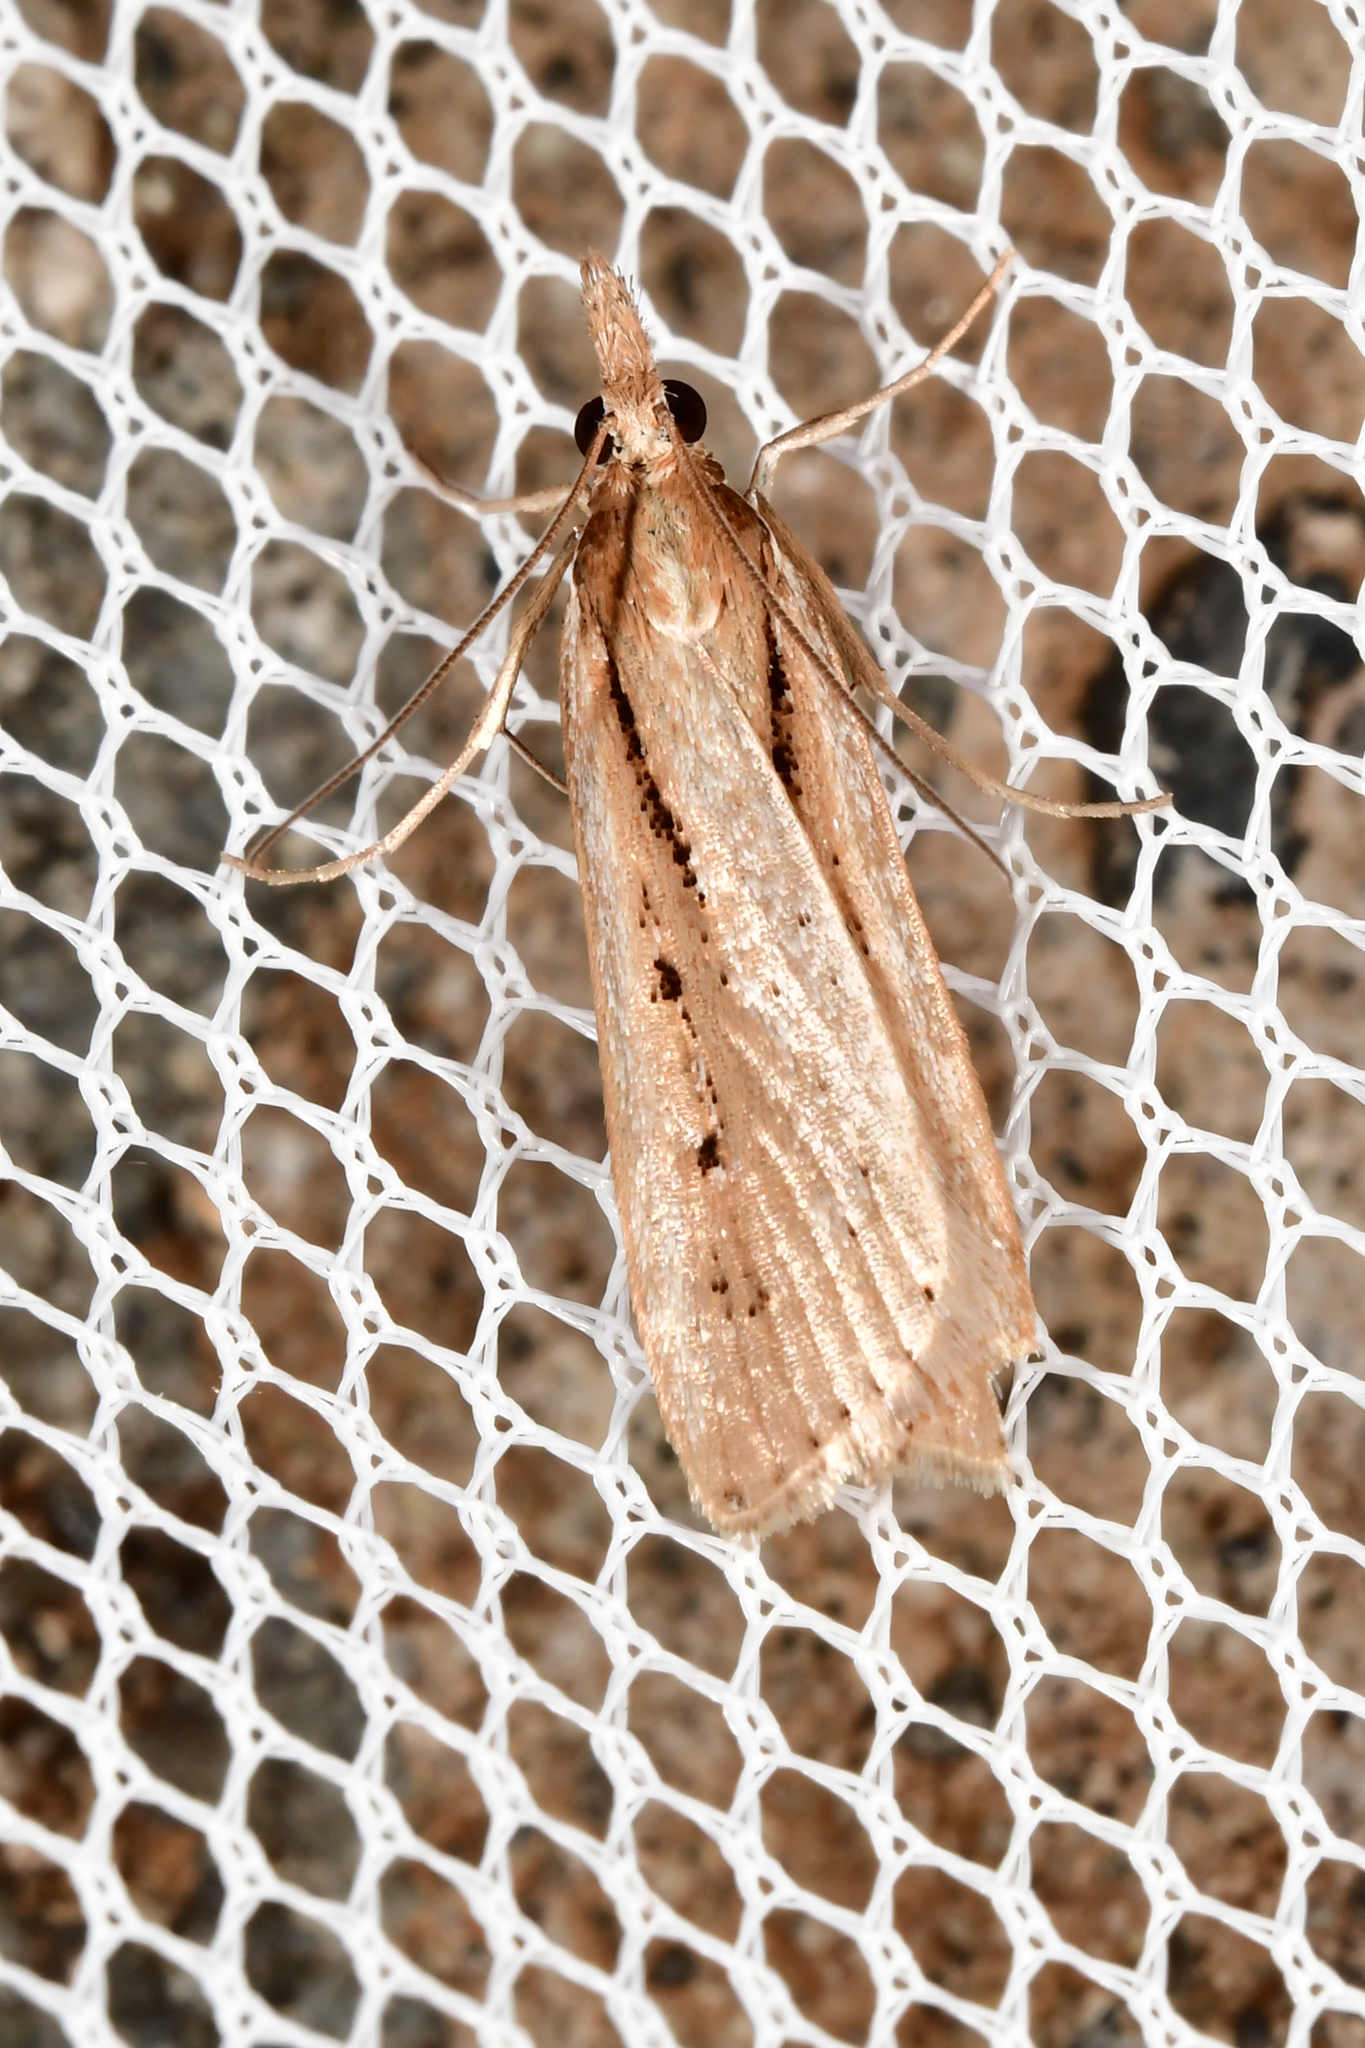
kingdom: Animalia
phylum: Arthropoda
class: Insecta
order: Lepidoptera
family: Crambidae
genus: Eudonia
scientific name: Eudonia sabulosella
